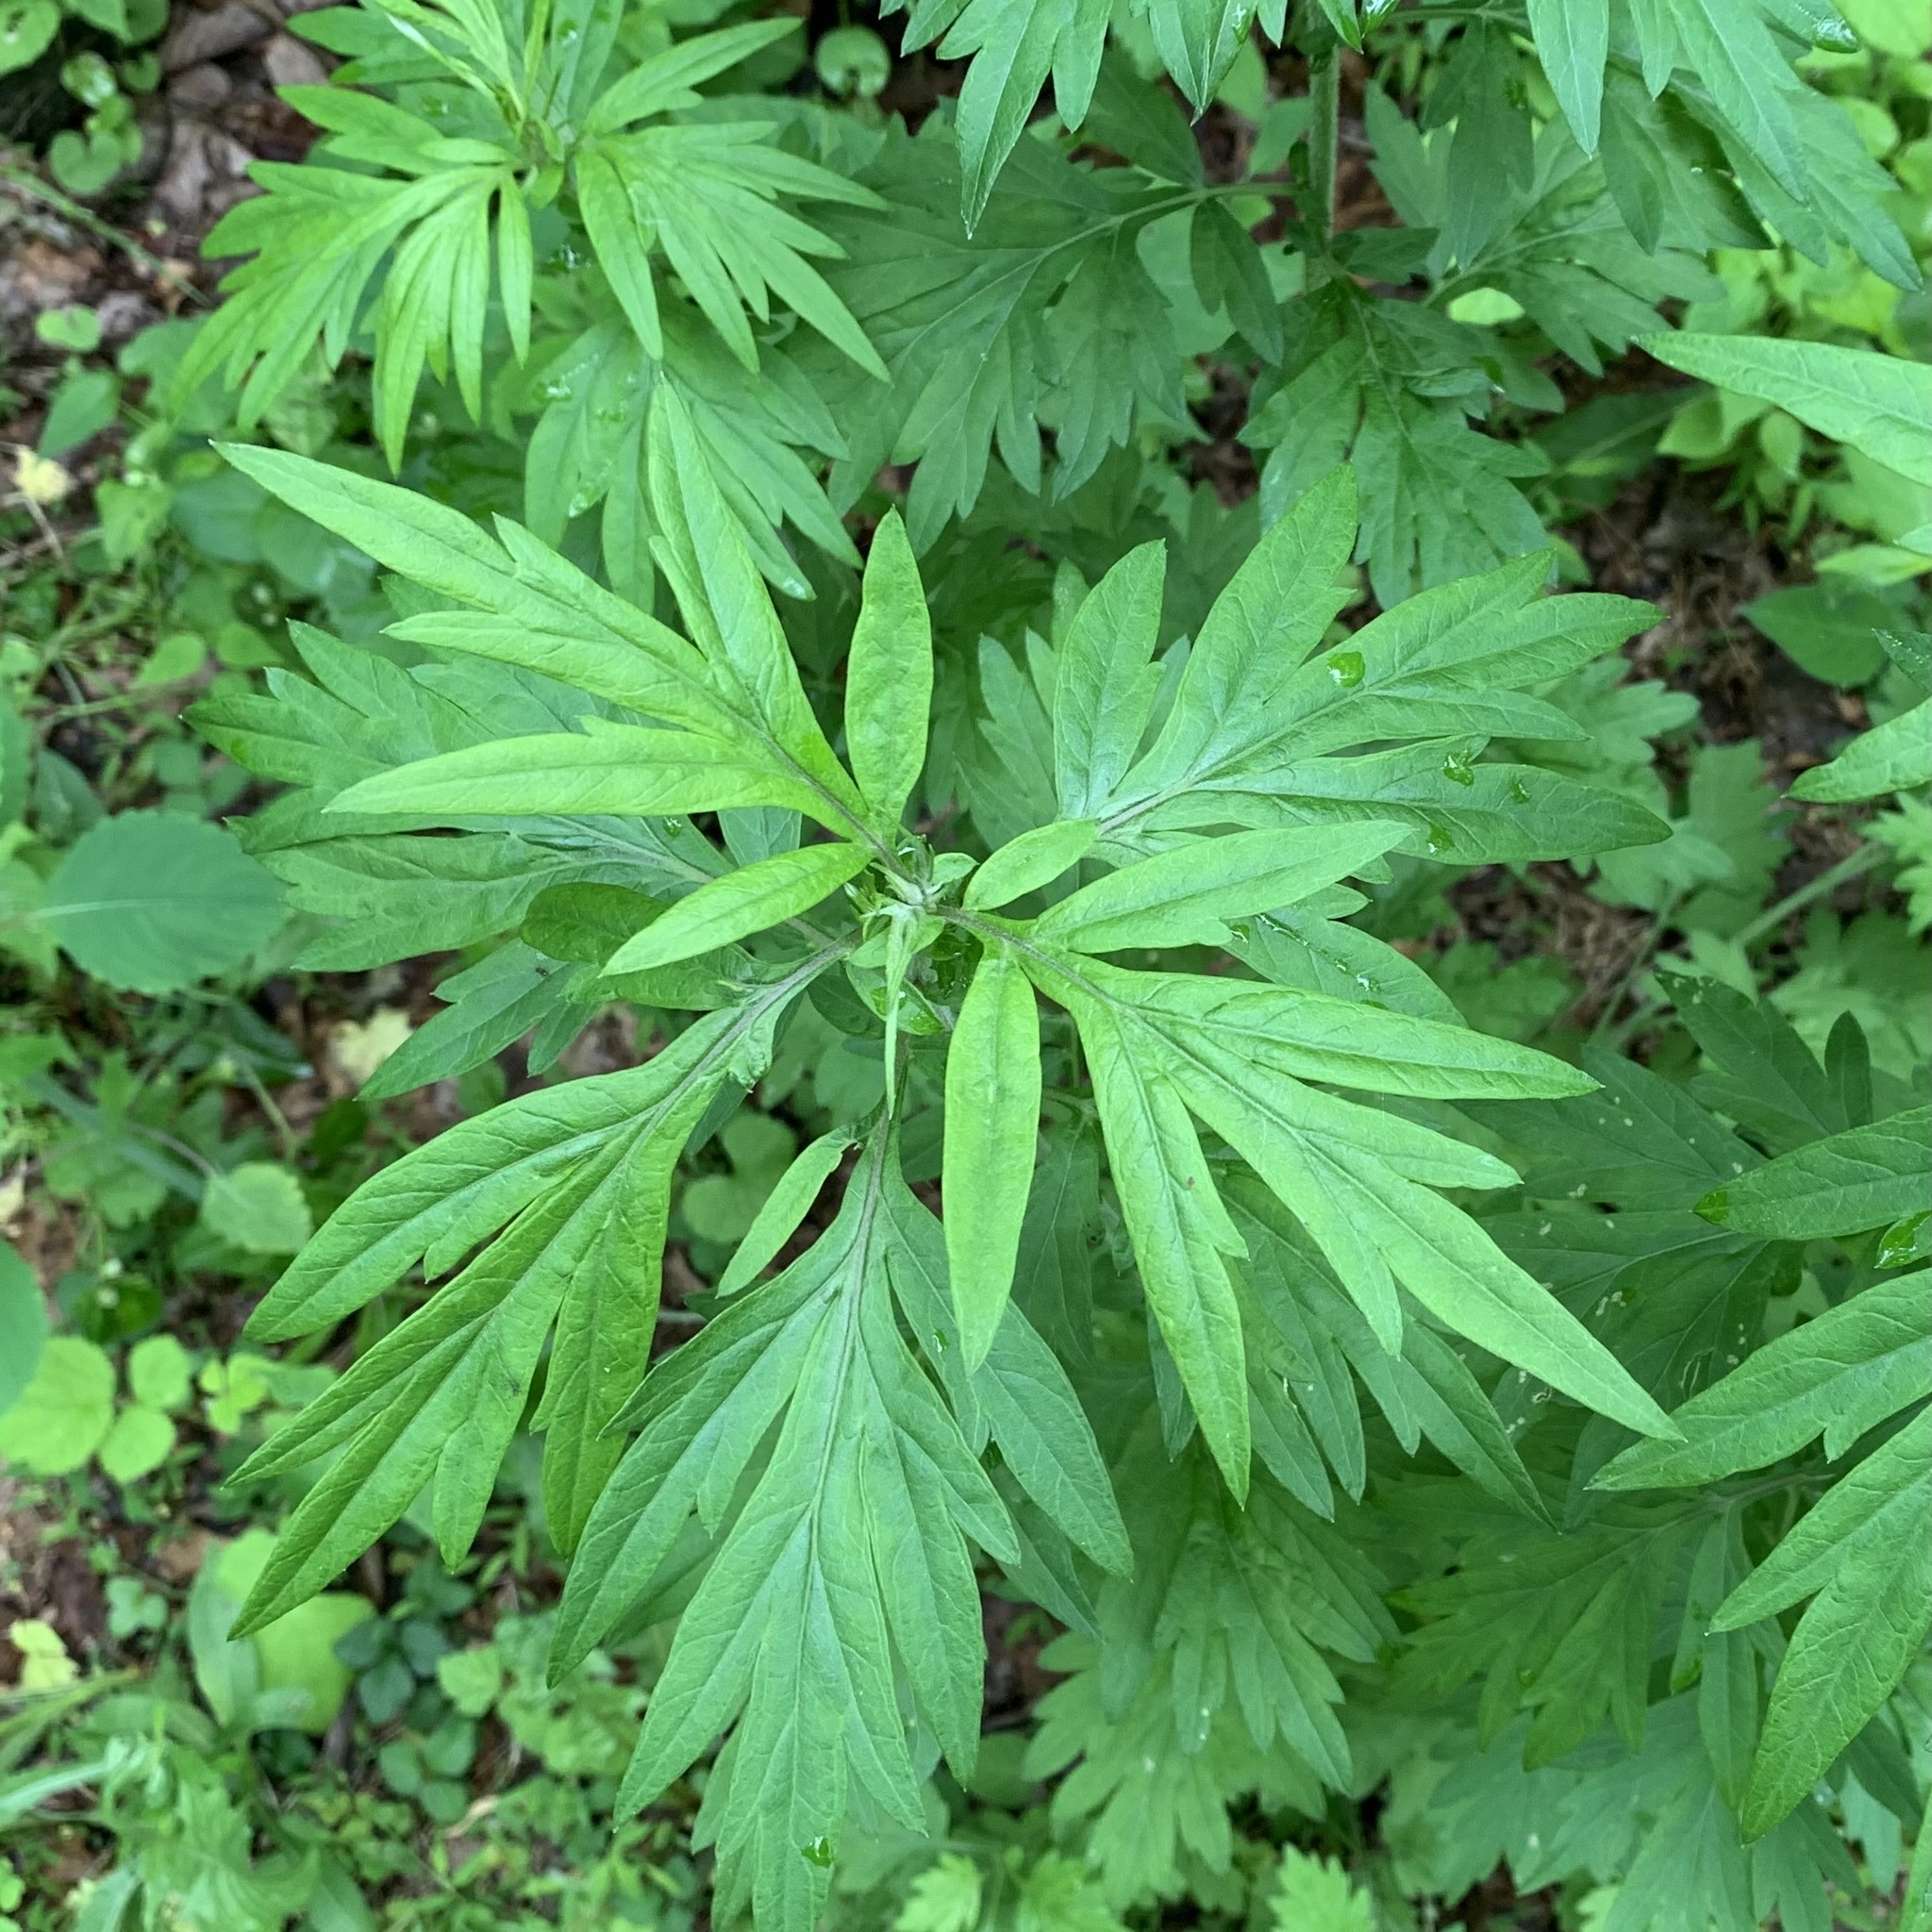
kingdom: Plantae
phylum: Tracheophyta
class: Magnoliopsida
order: Asterales
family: Asteraceae
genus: Artemisia
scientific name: Artemisia vulgaris
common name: Mugwort
